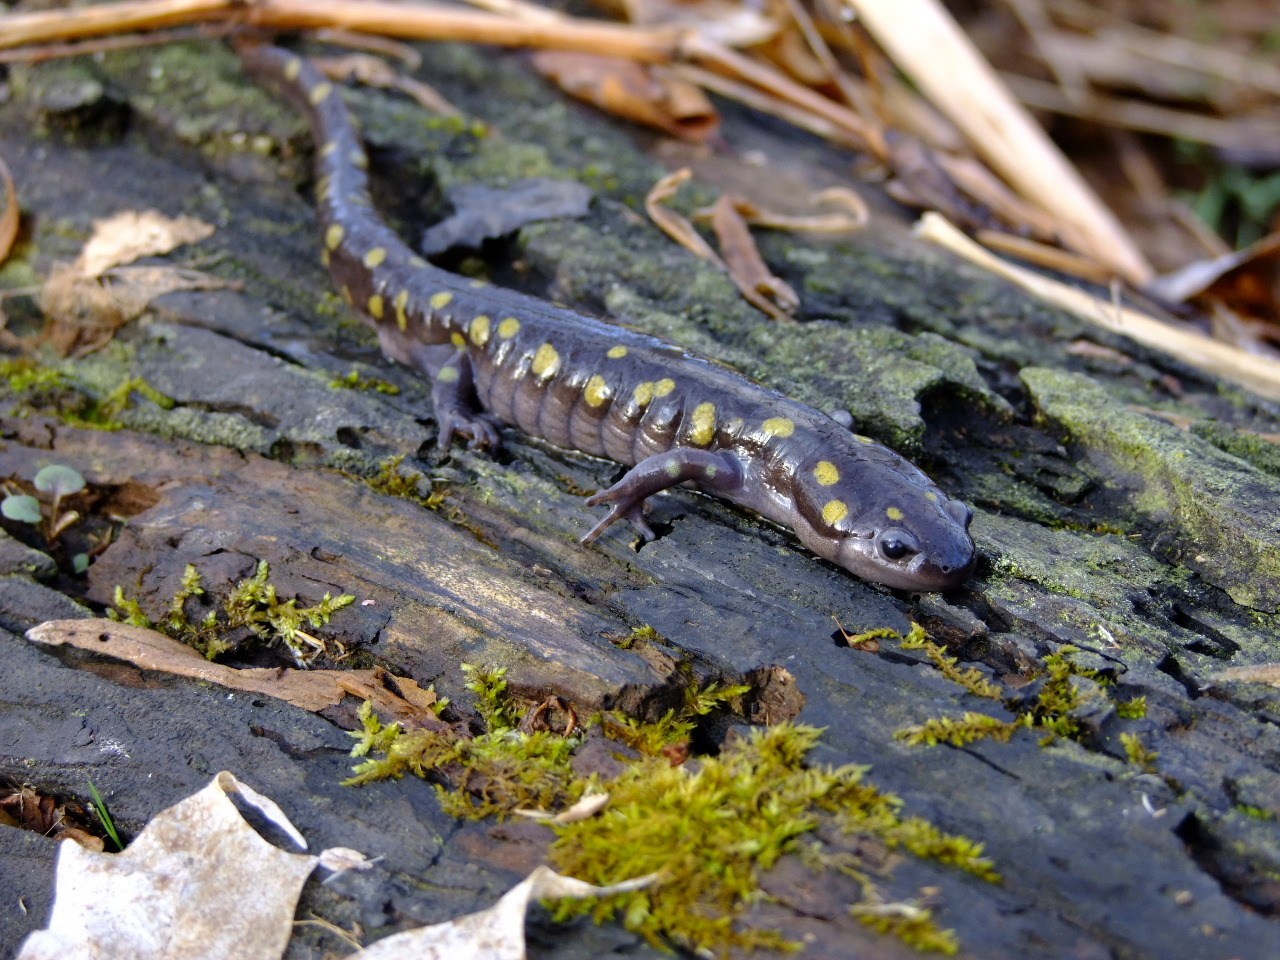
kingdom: Animalia
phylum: Chordata
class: Amphibia
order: Caudata
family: Ambystomatidae
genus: Ambystoma
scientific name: Ambystoma maculatum
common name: Spotted salamander
